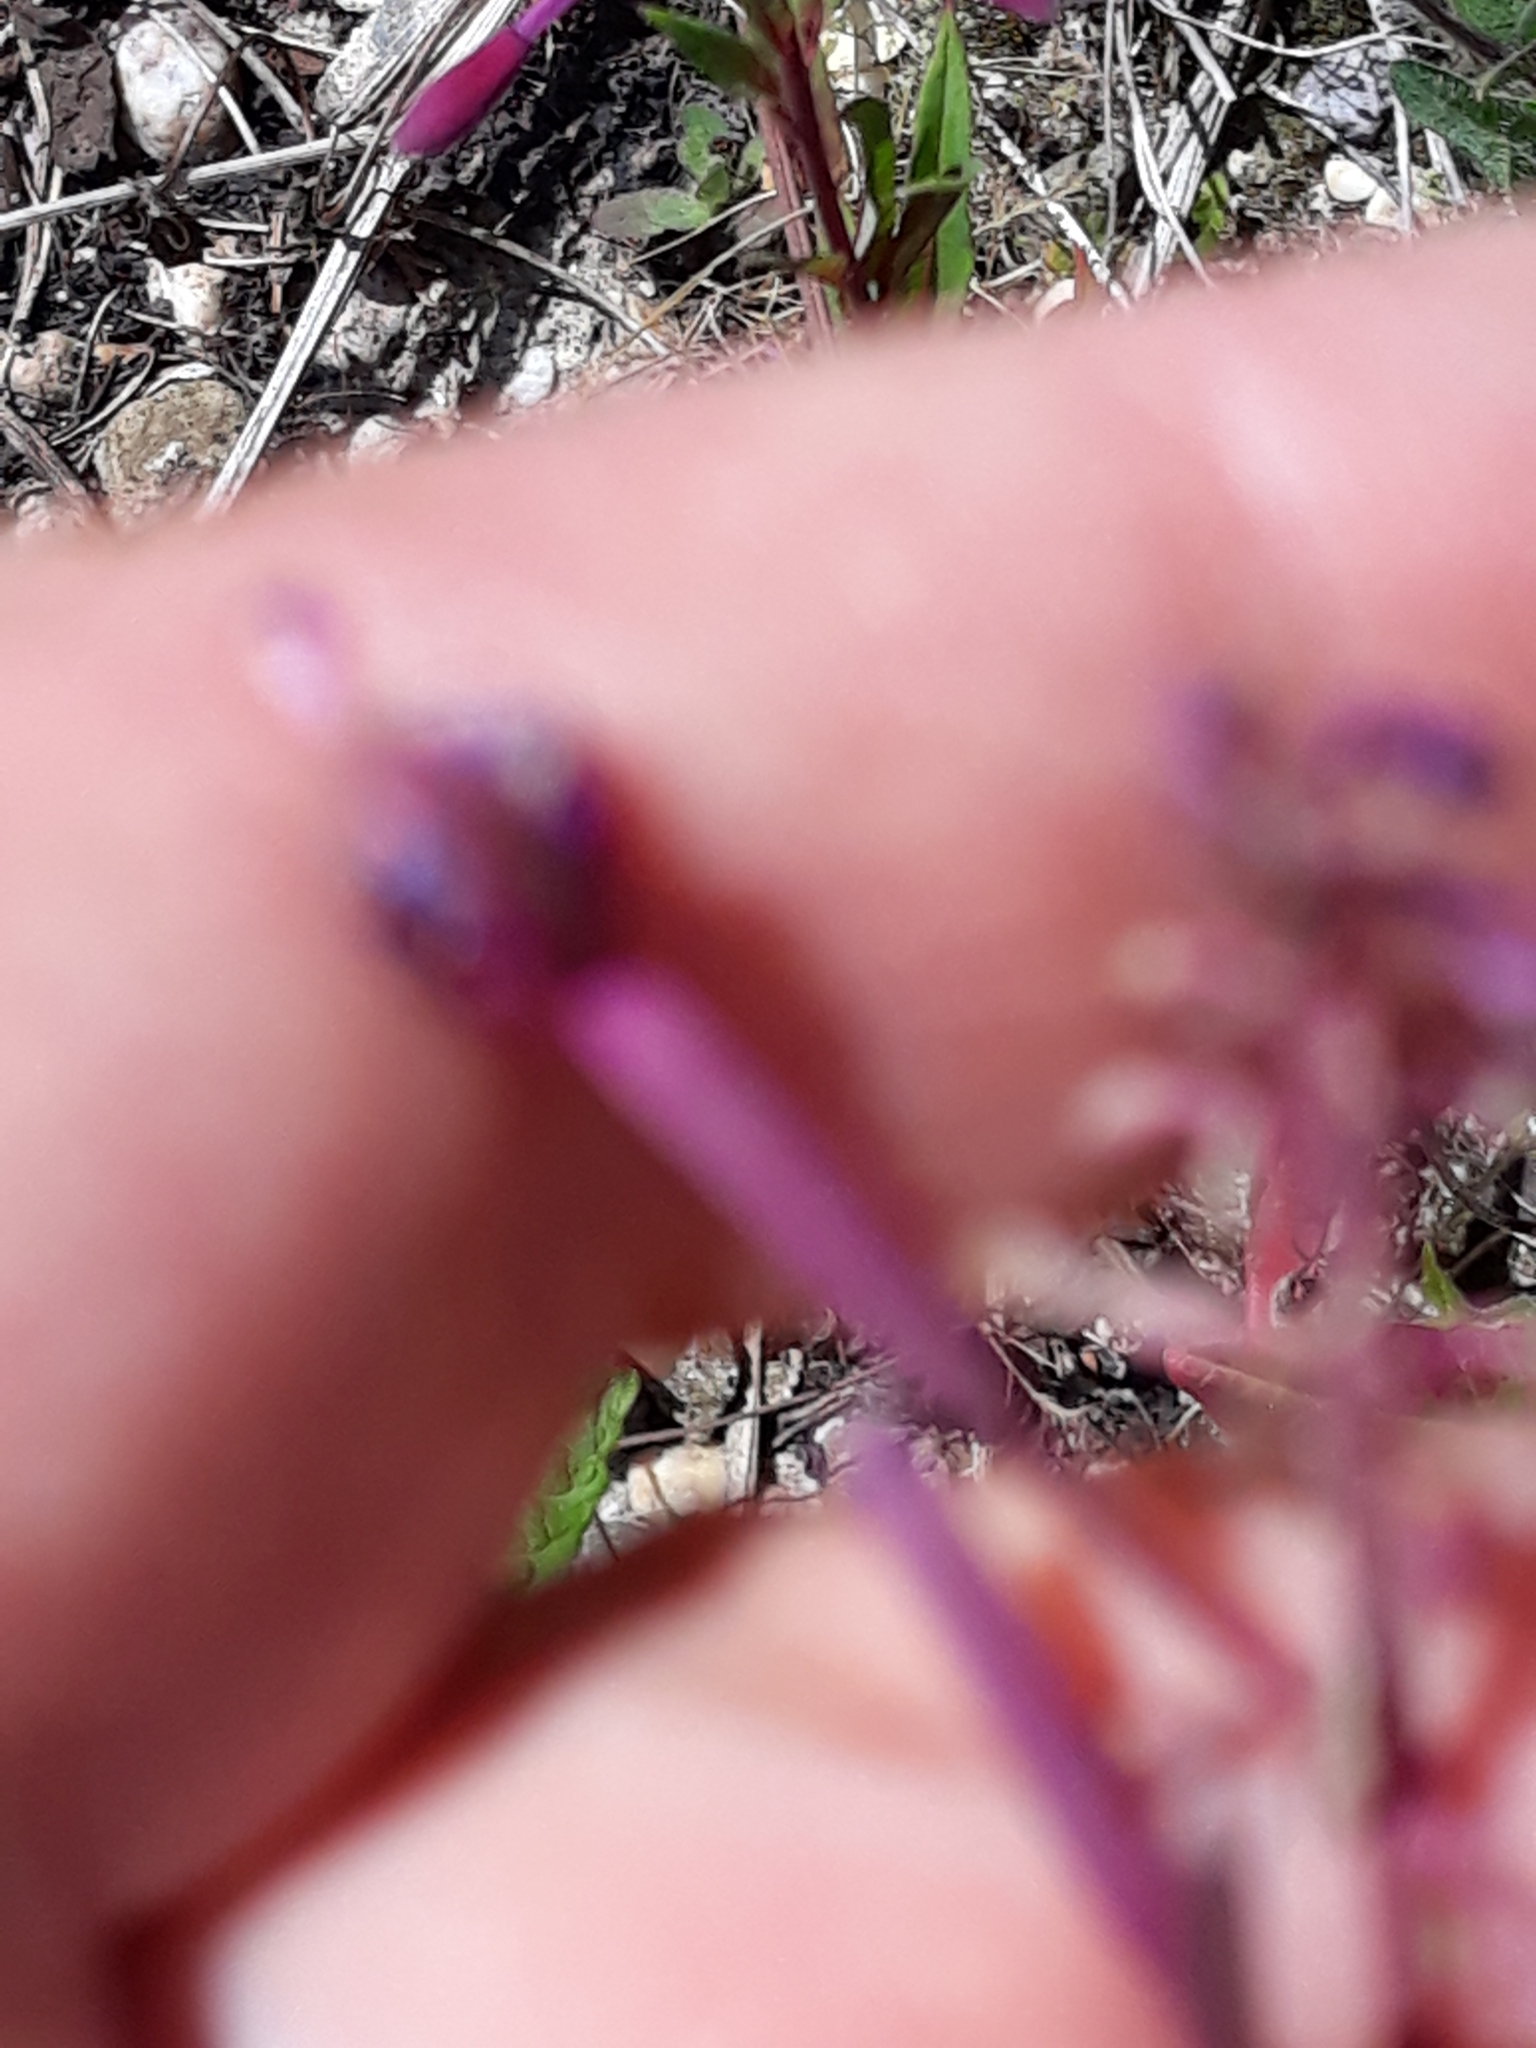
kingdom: Plantae
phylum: Tracheophyta
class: Magnoliopsida
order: Myrtales
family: Onagraceae
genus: Chamaenerion
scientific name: Chamaenerion angustifolium
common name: Fireweed
